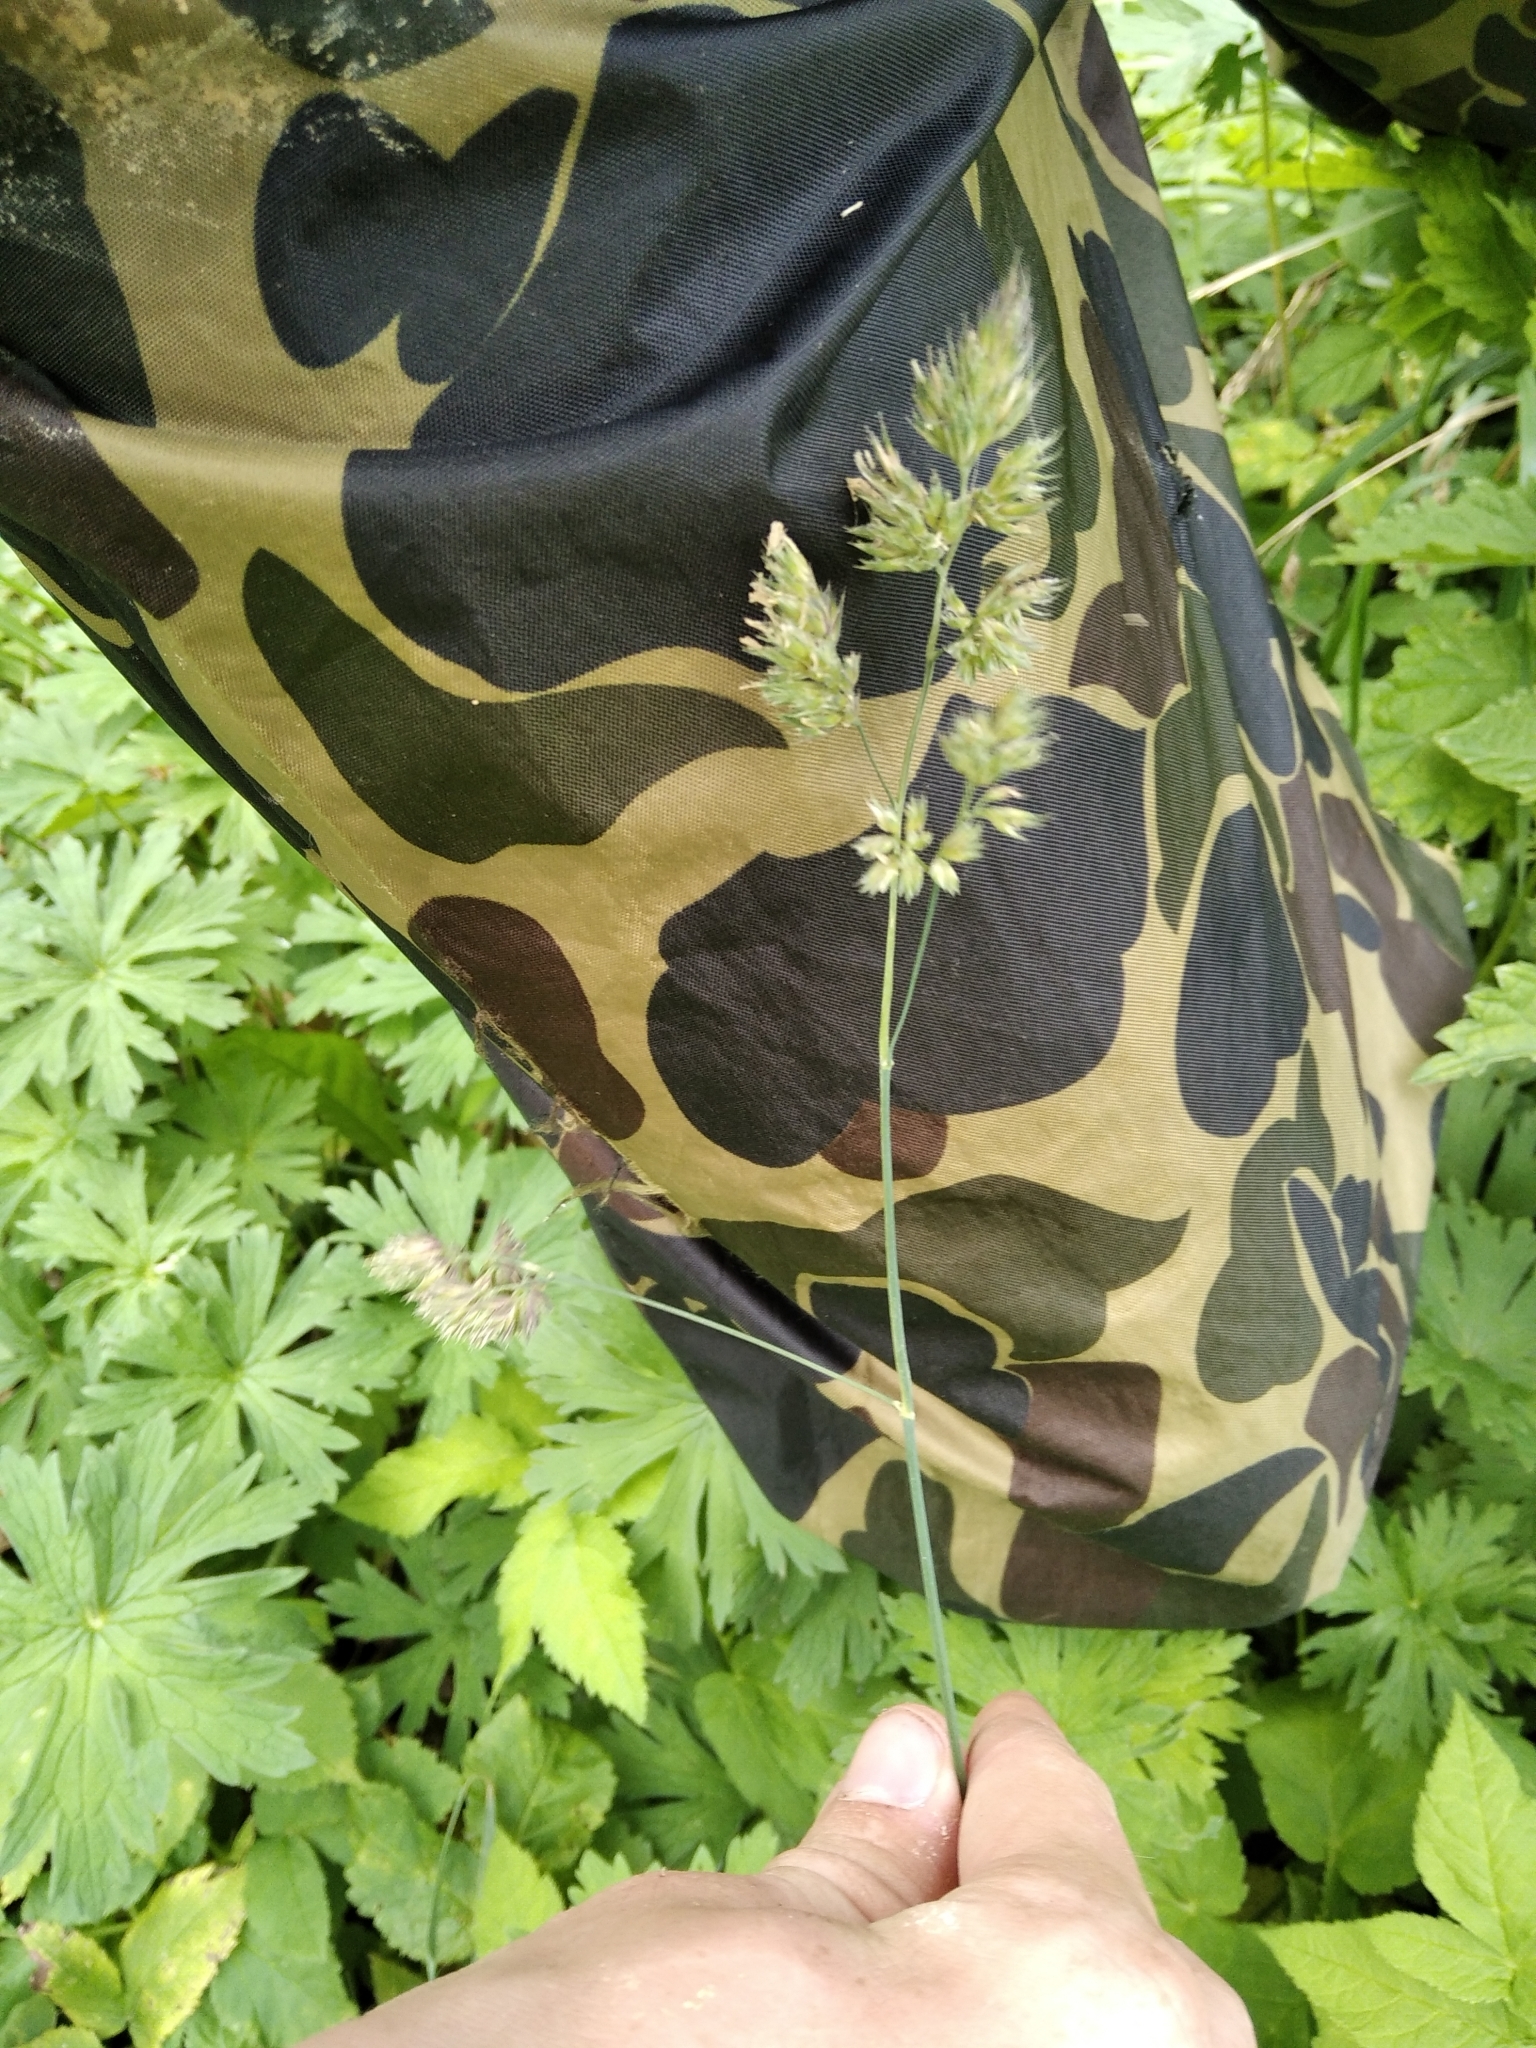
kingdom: Plantae
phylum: Tracheophyta
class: Liliopsida
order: Poales
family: Poaceae
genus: Dactylis
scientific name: Dactylis glomerata
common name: Orchardgrass
